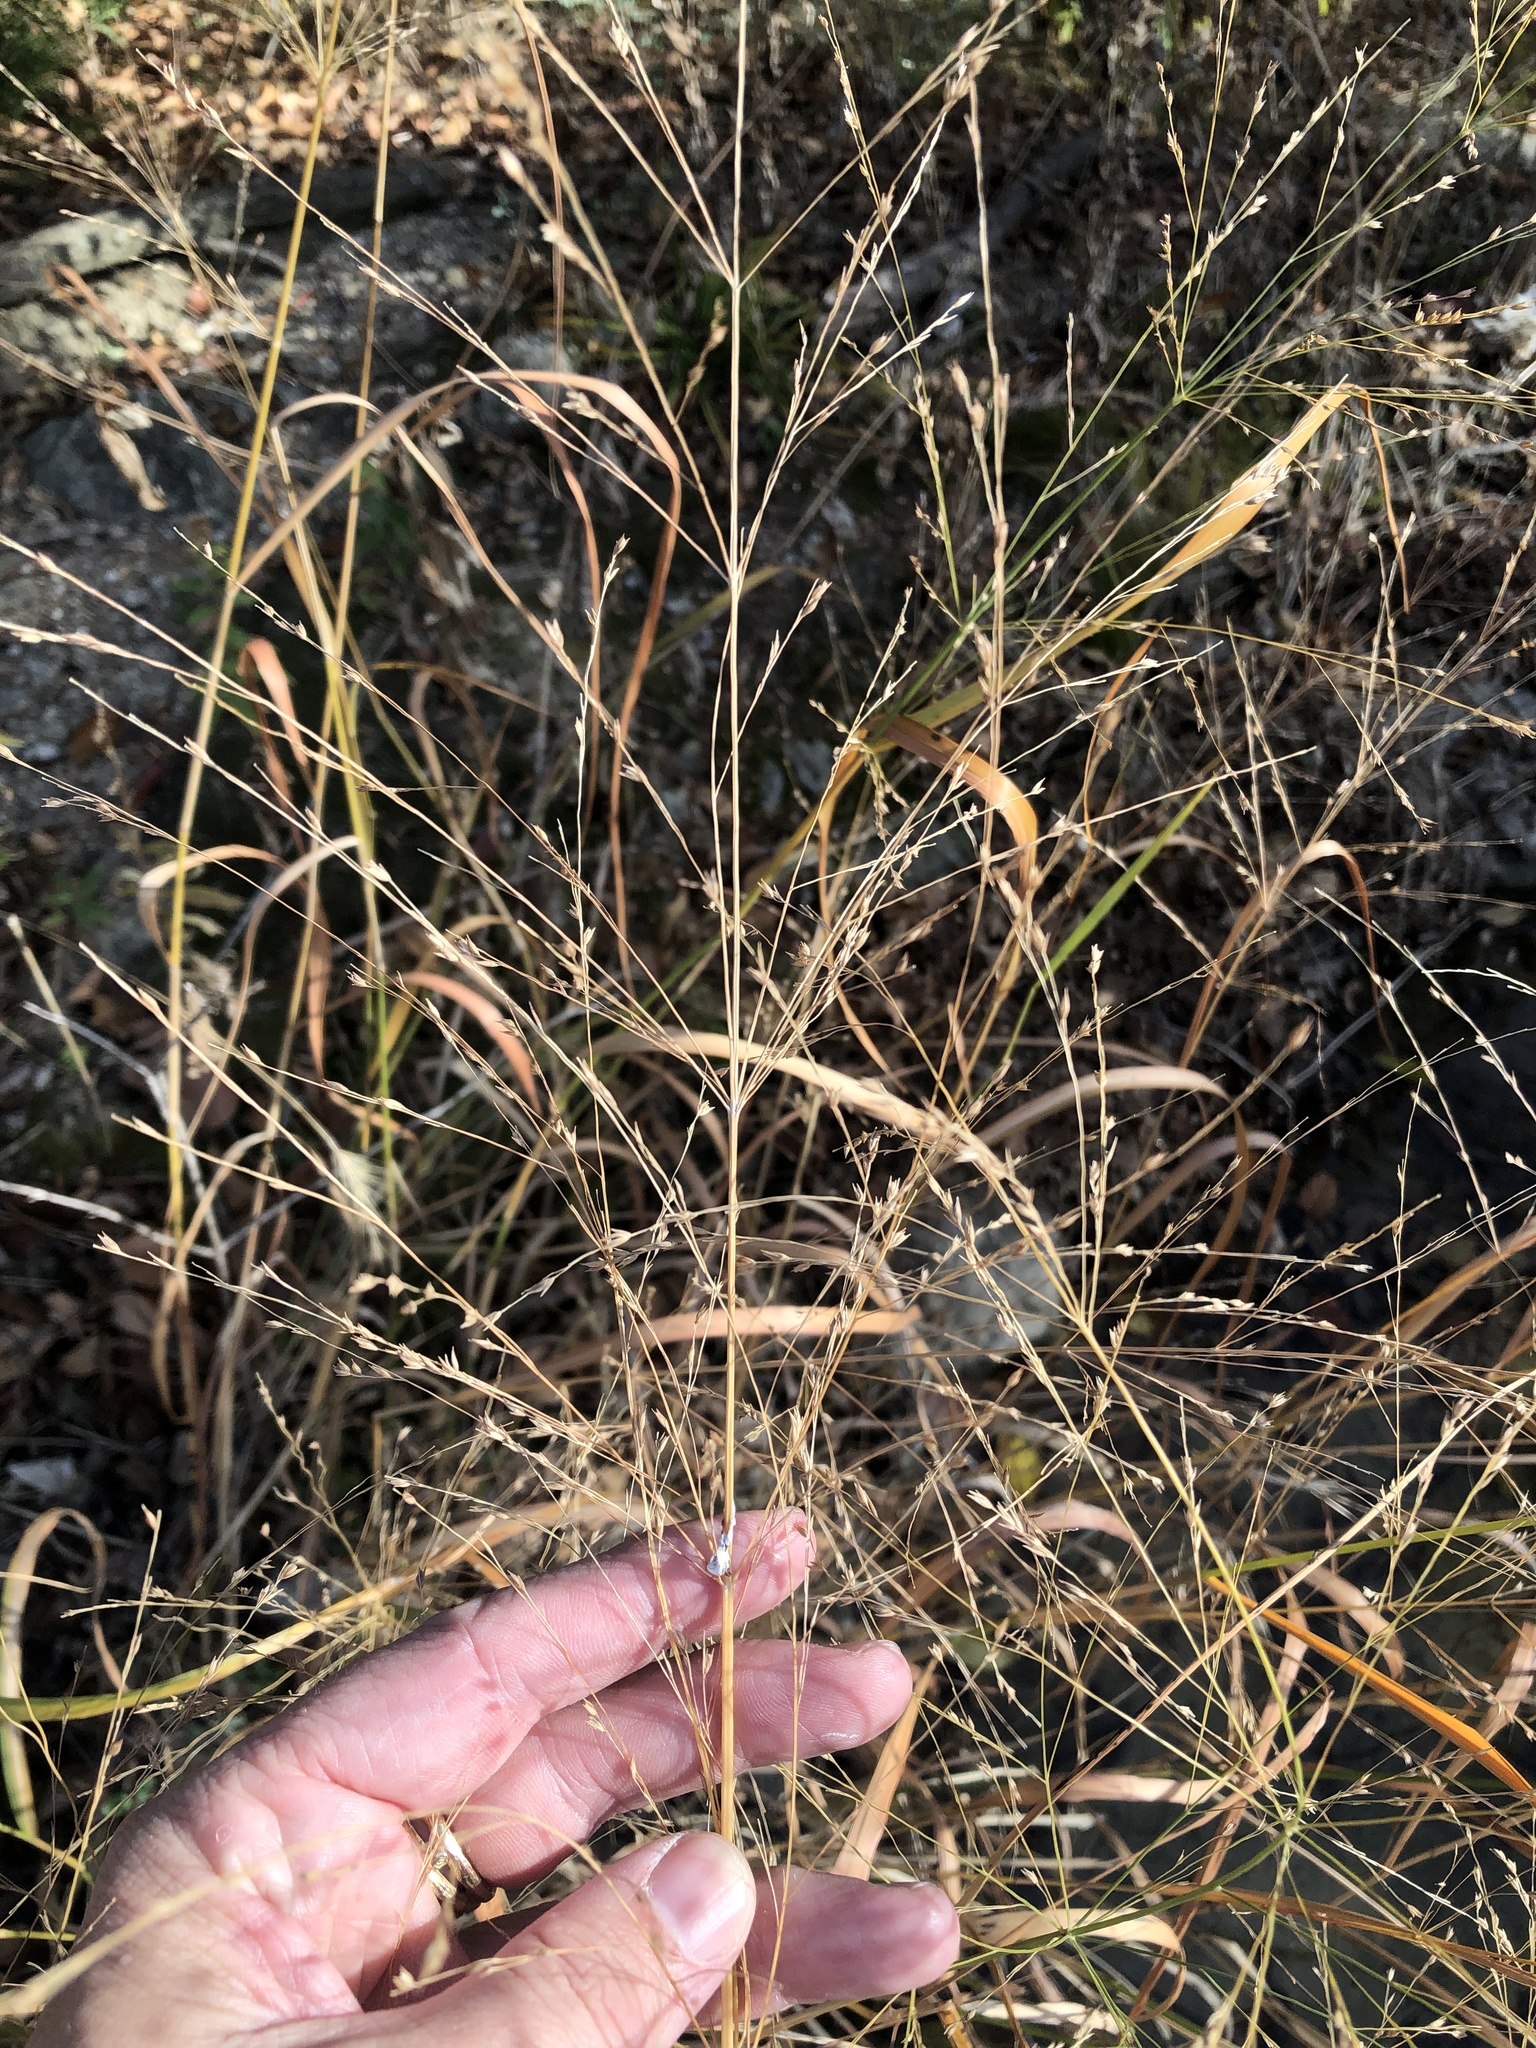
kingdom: Plantae
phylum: Tracheophyta
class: Liliopsida
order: Poales
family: Poaceae
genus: Panicum
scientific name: Panicum virgatum
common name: Switchgrass
